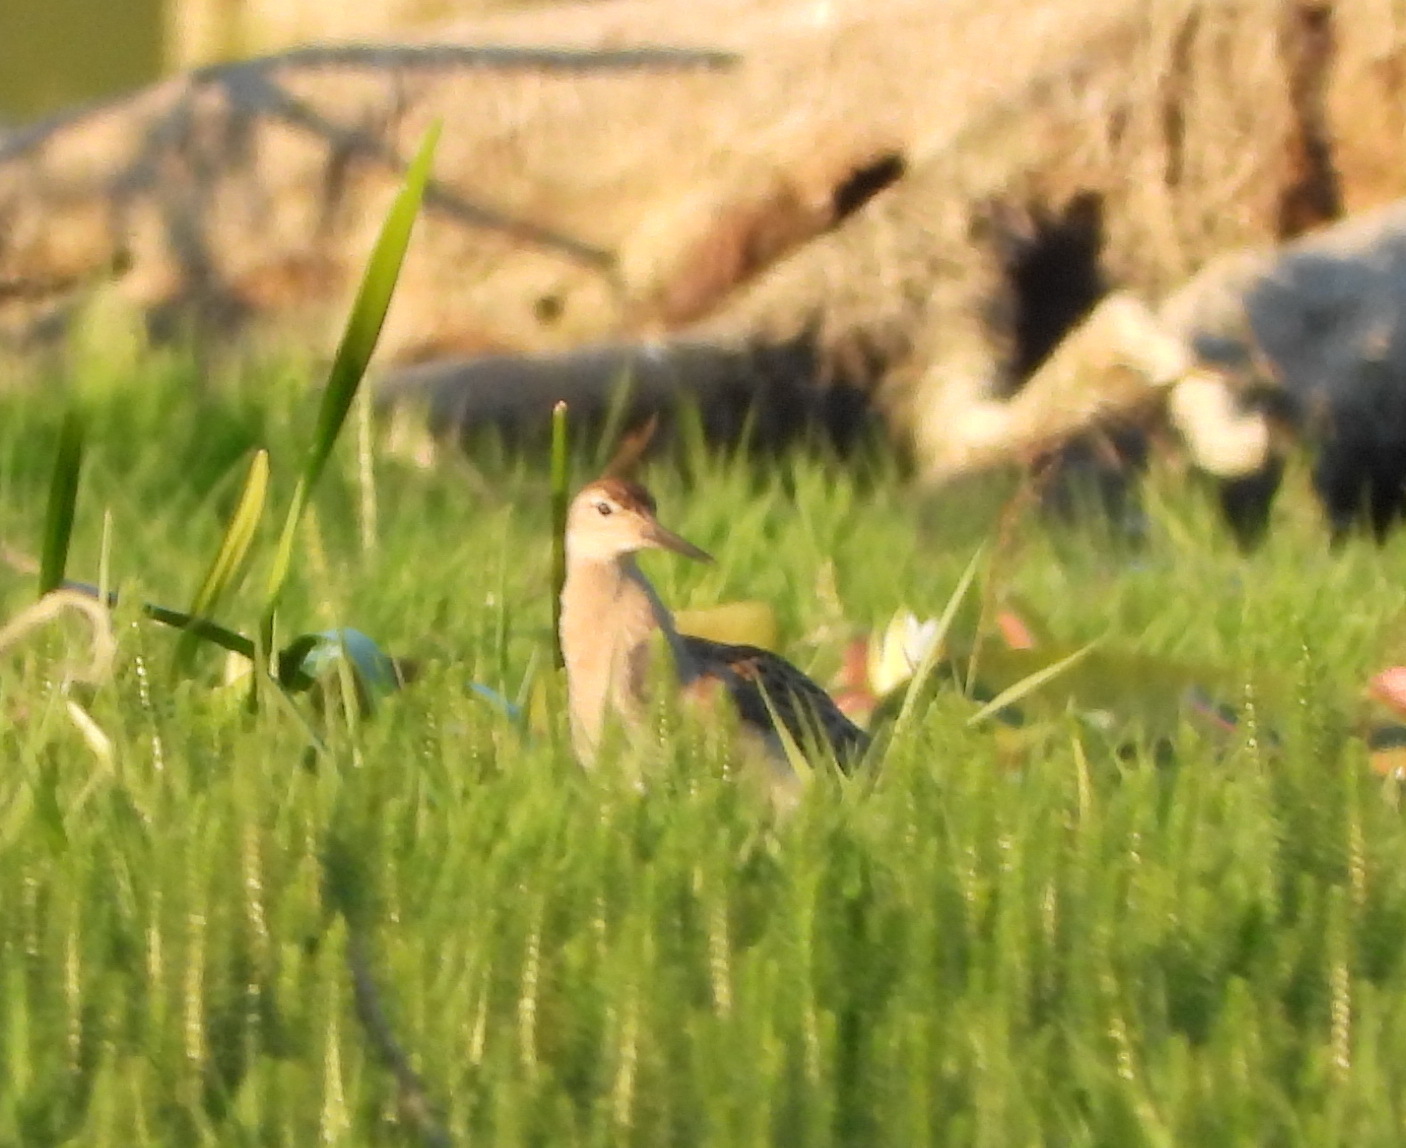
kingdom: Animalia
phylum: Chordata
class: Aves
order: Charadriiformes
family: Scolopacidae
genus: Calidris
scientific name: Calidris pugnax
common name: Ruff
